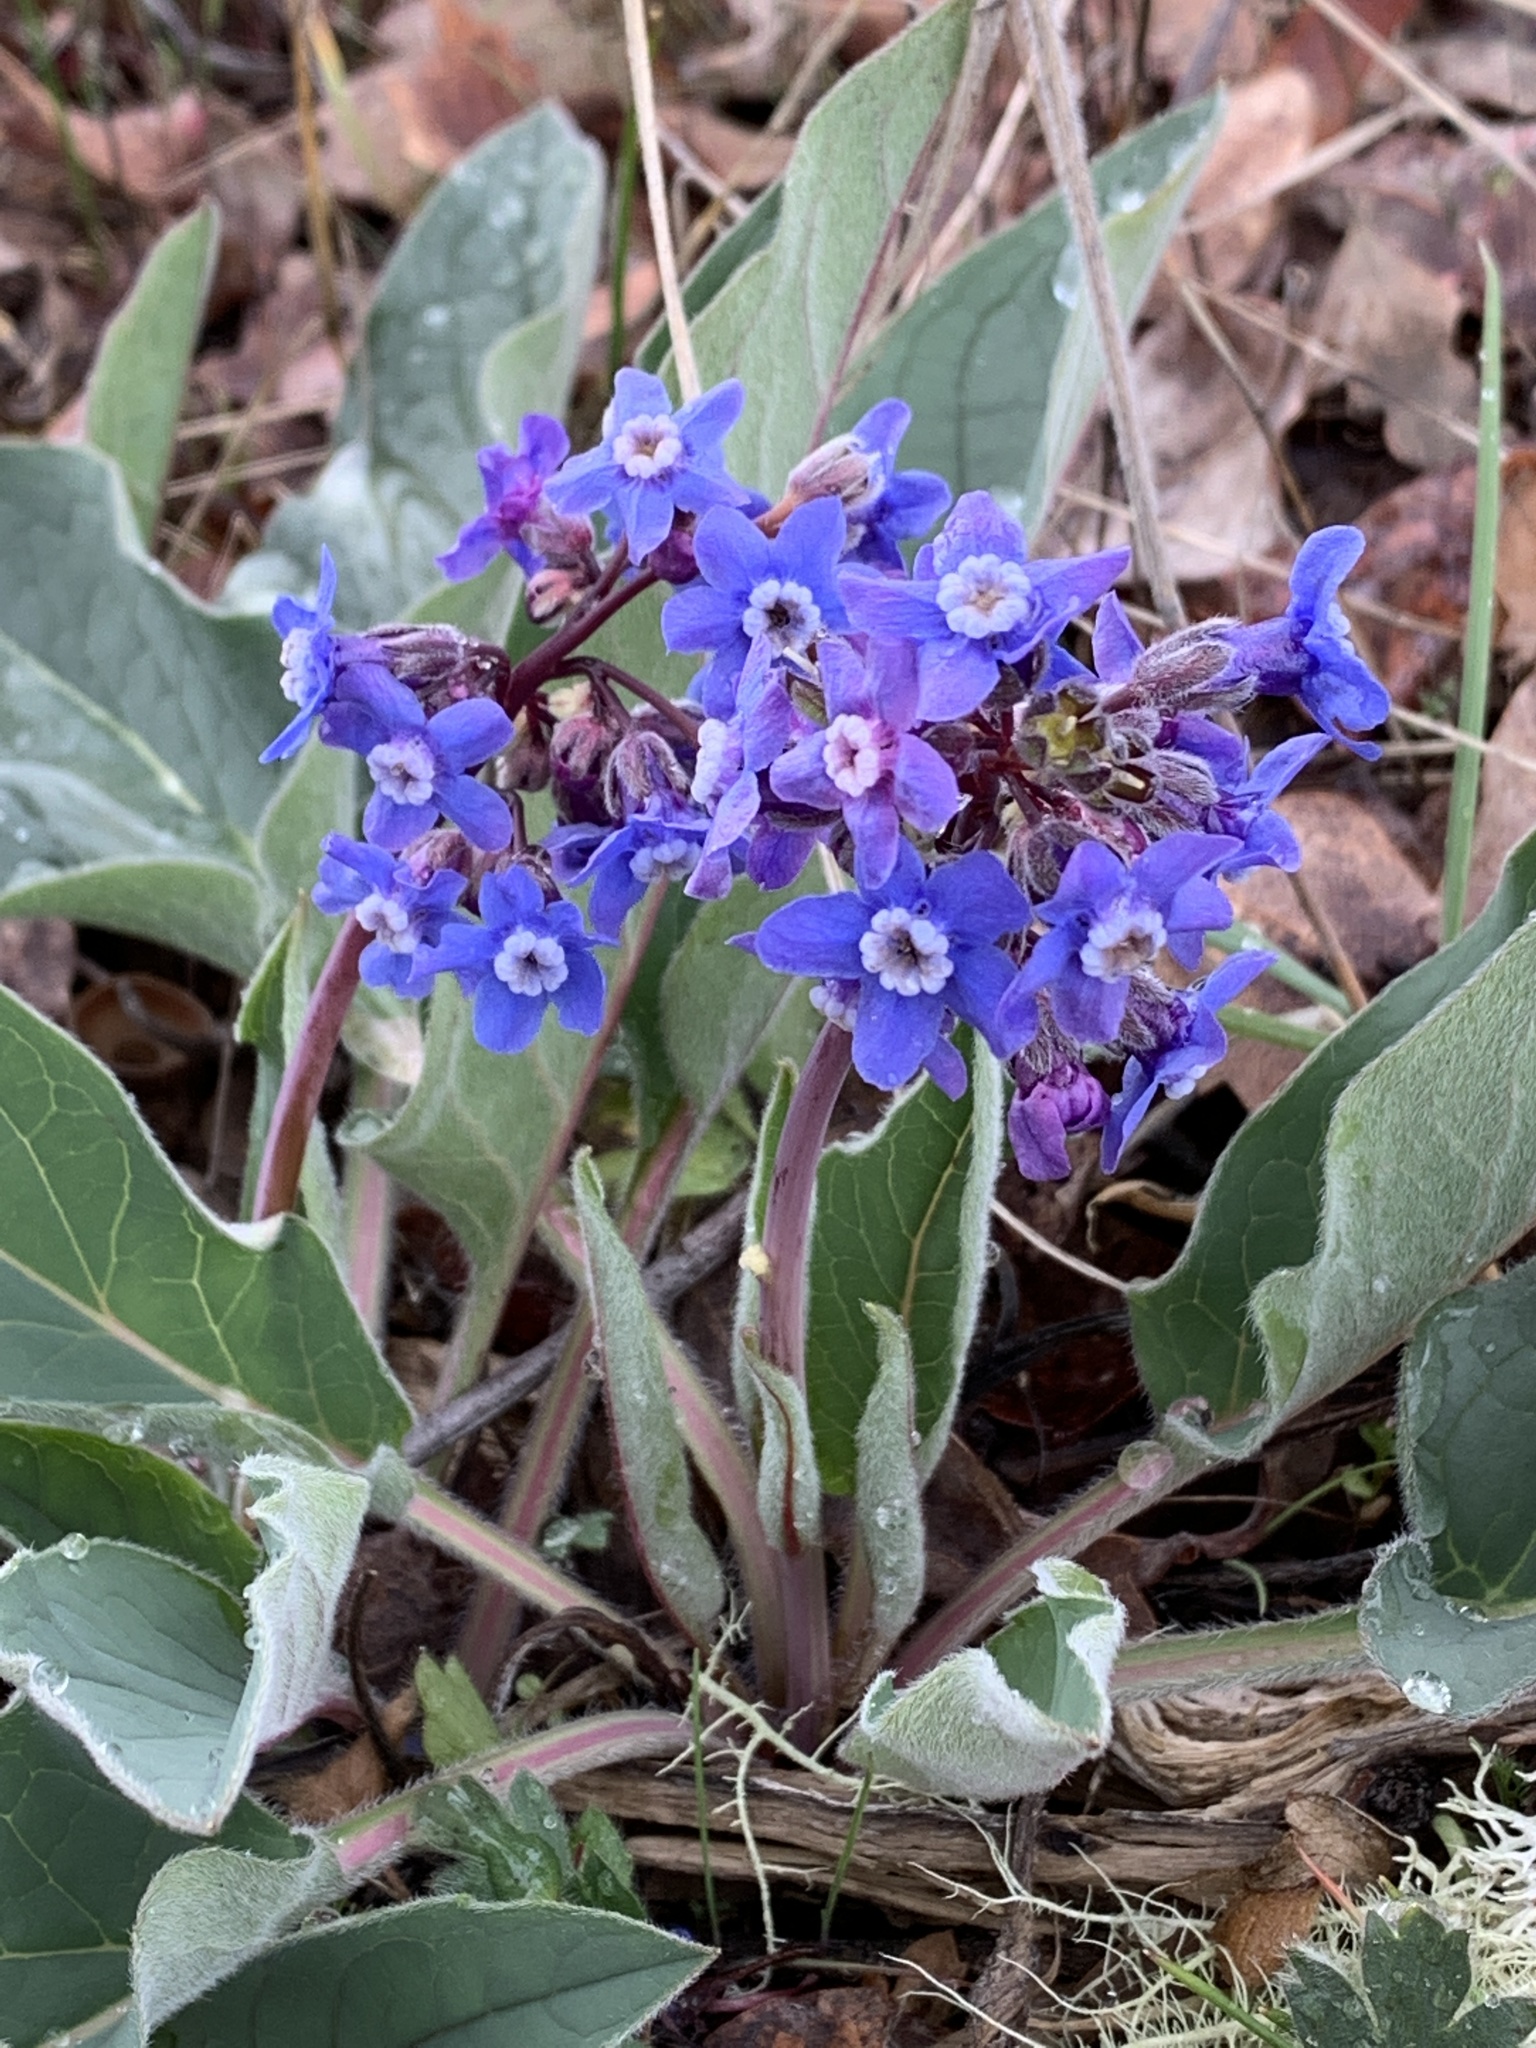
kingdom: Plantae
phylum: Tracheophyta
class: Magnoliopsida
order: Boraginales
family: Boraginaceae
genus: Adelinia
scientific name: Adelinia grande
